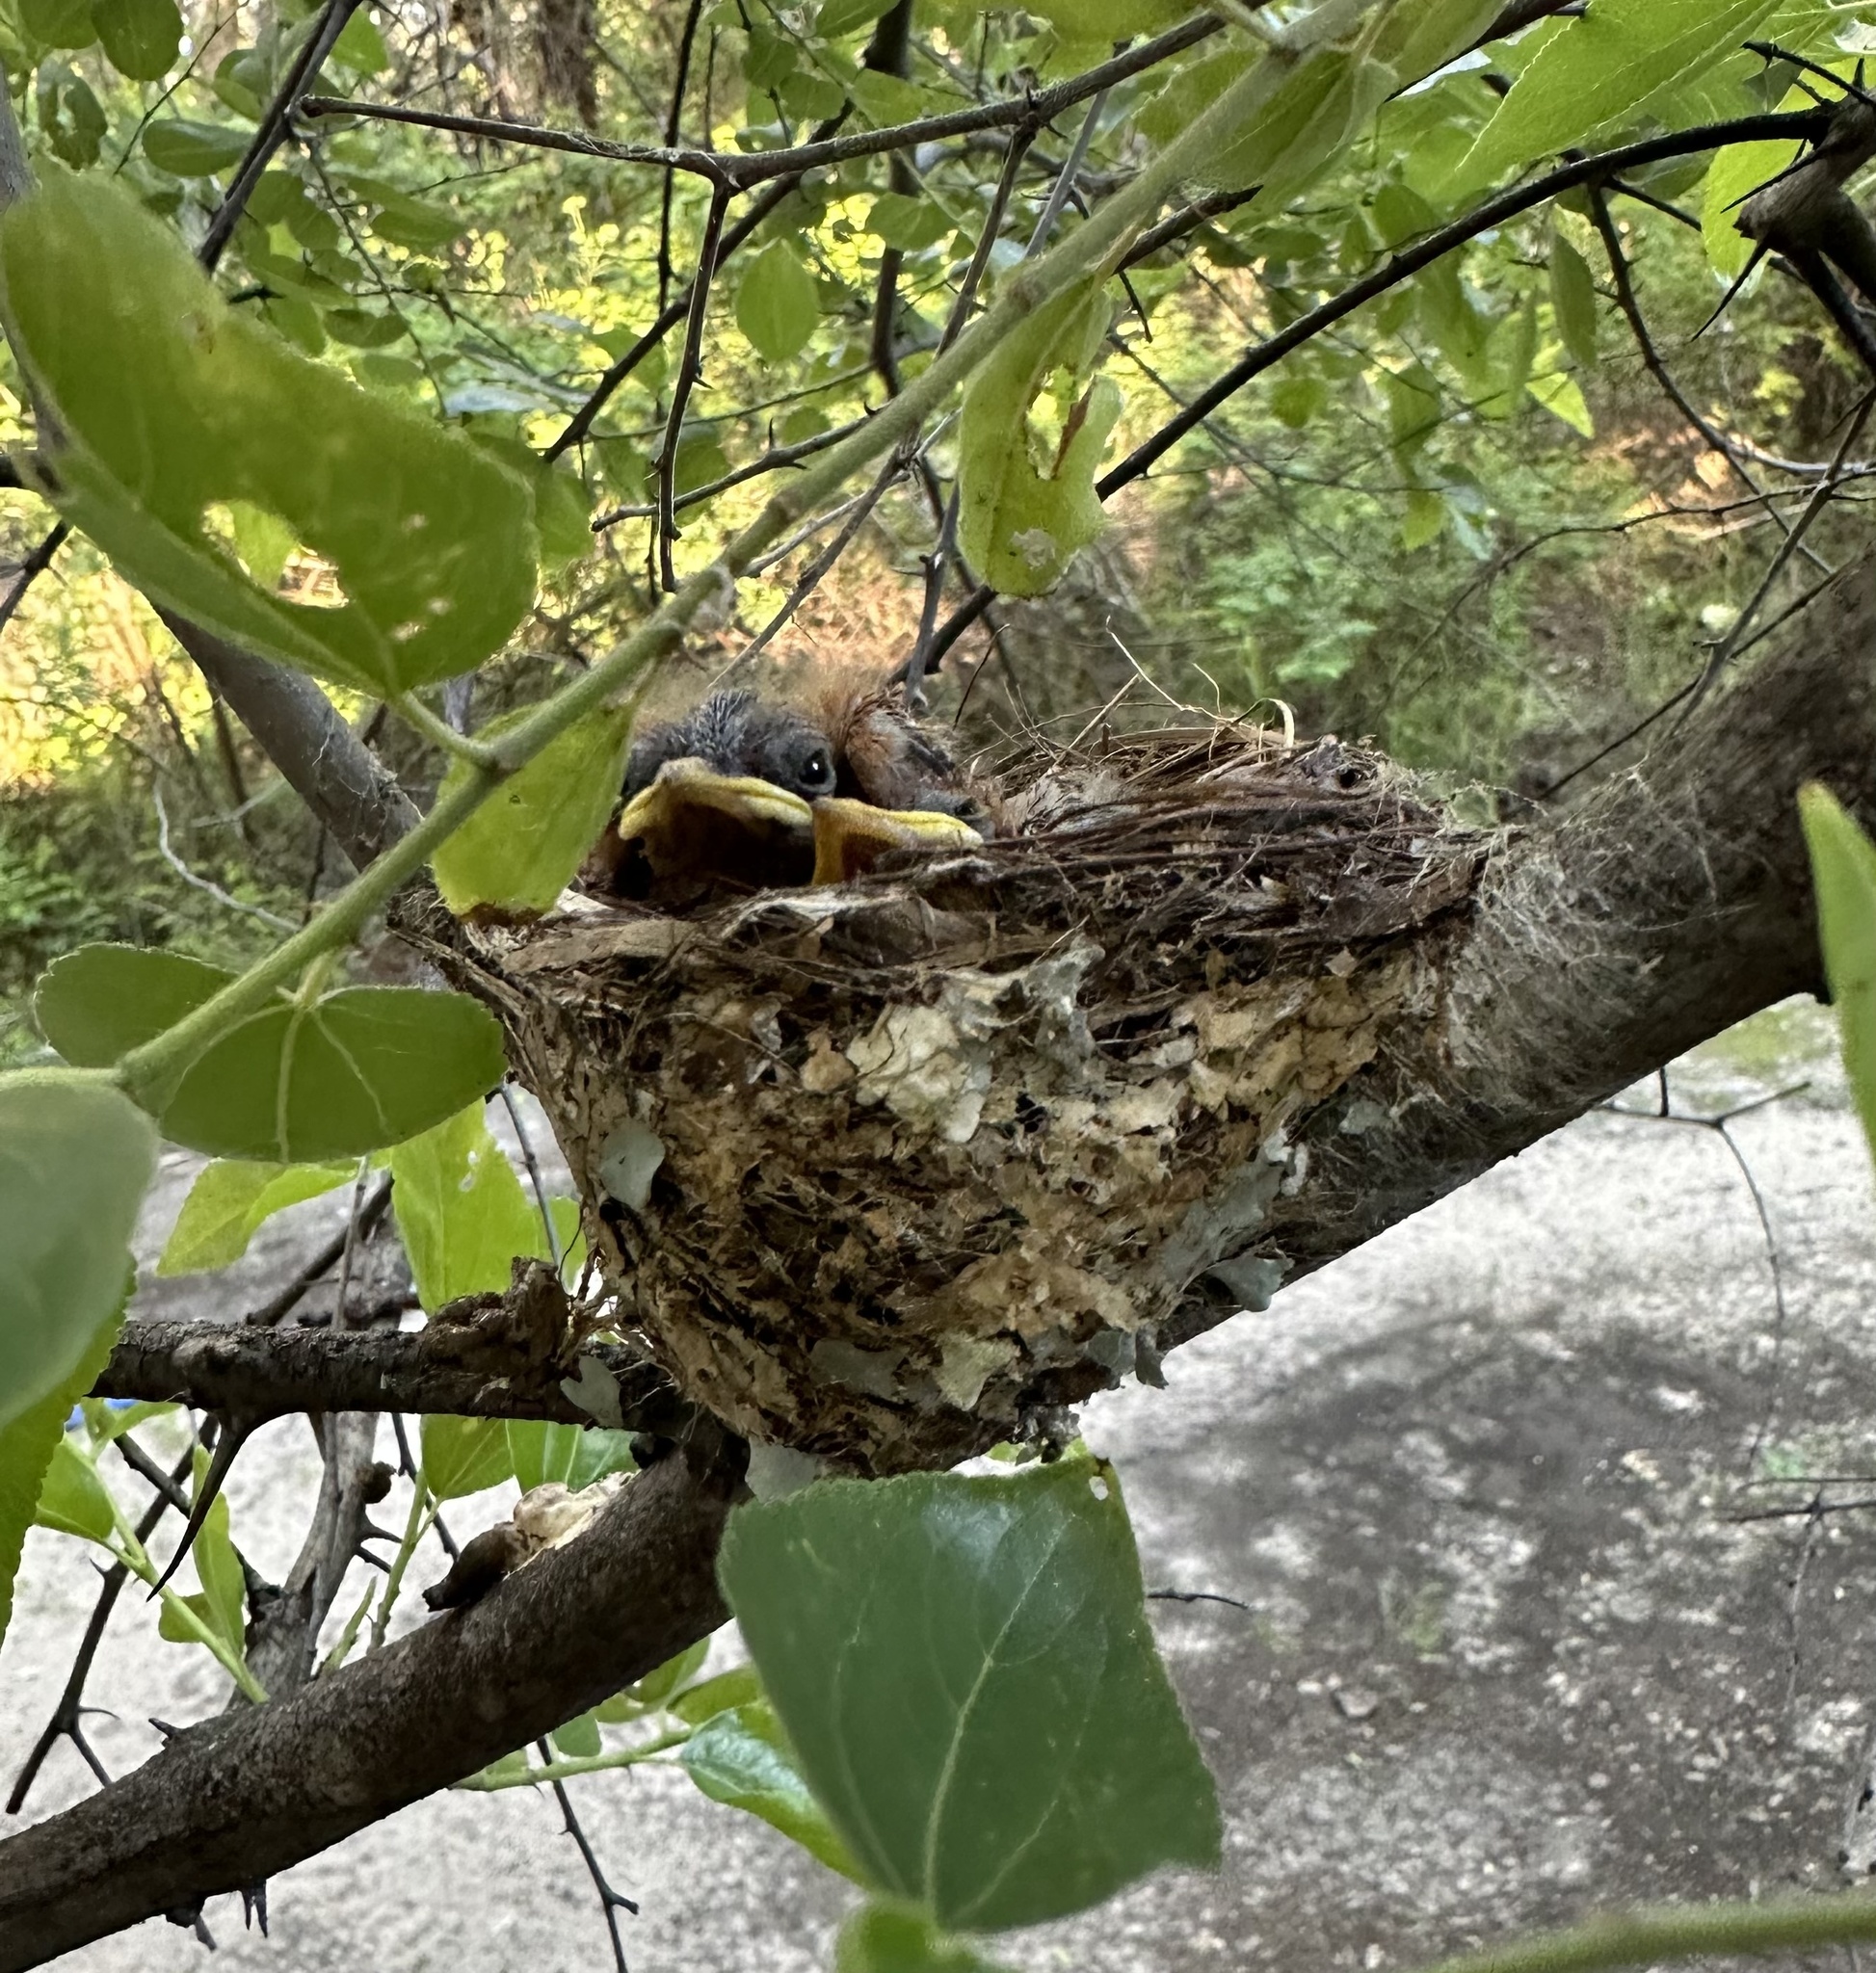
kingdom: Animalia
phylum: Chordata
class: Aves
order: Passeriformes
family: Monarchidae
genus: Terpsiphone
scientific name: Terpsiphone viridis
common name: African paradise flycatcher
